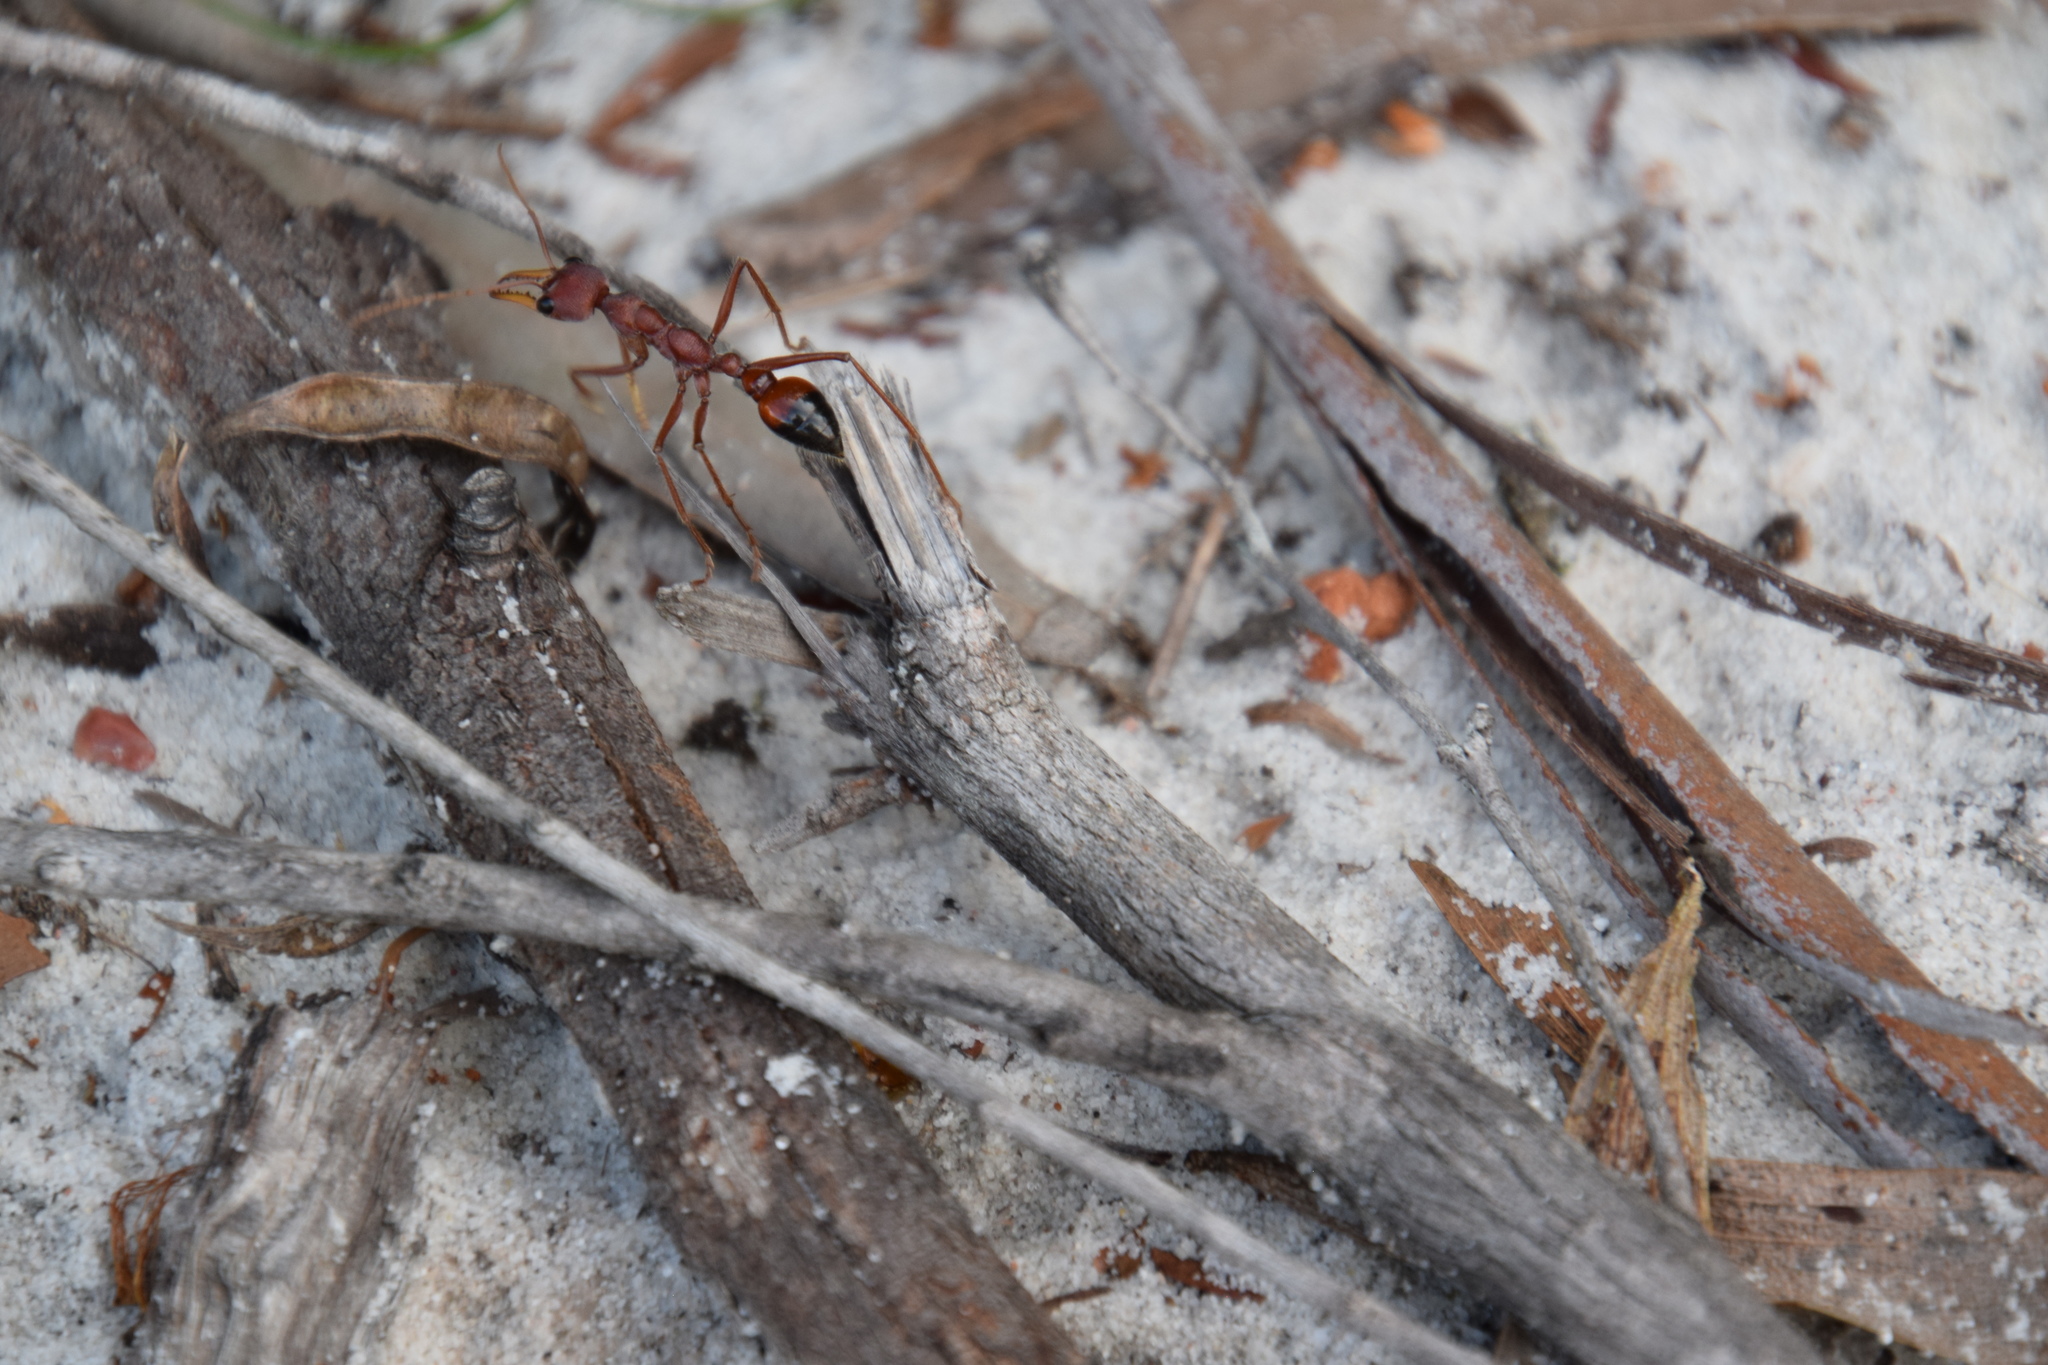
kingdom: Animalia
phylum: Arthropoda
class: Insecta
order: Hymenoptera
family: Formicidae
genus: Myrmecia
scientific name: Myrmecia gulosa
